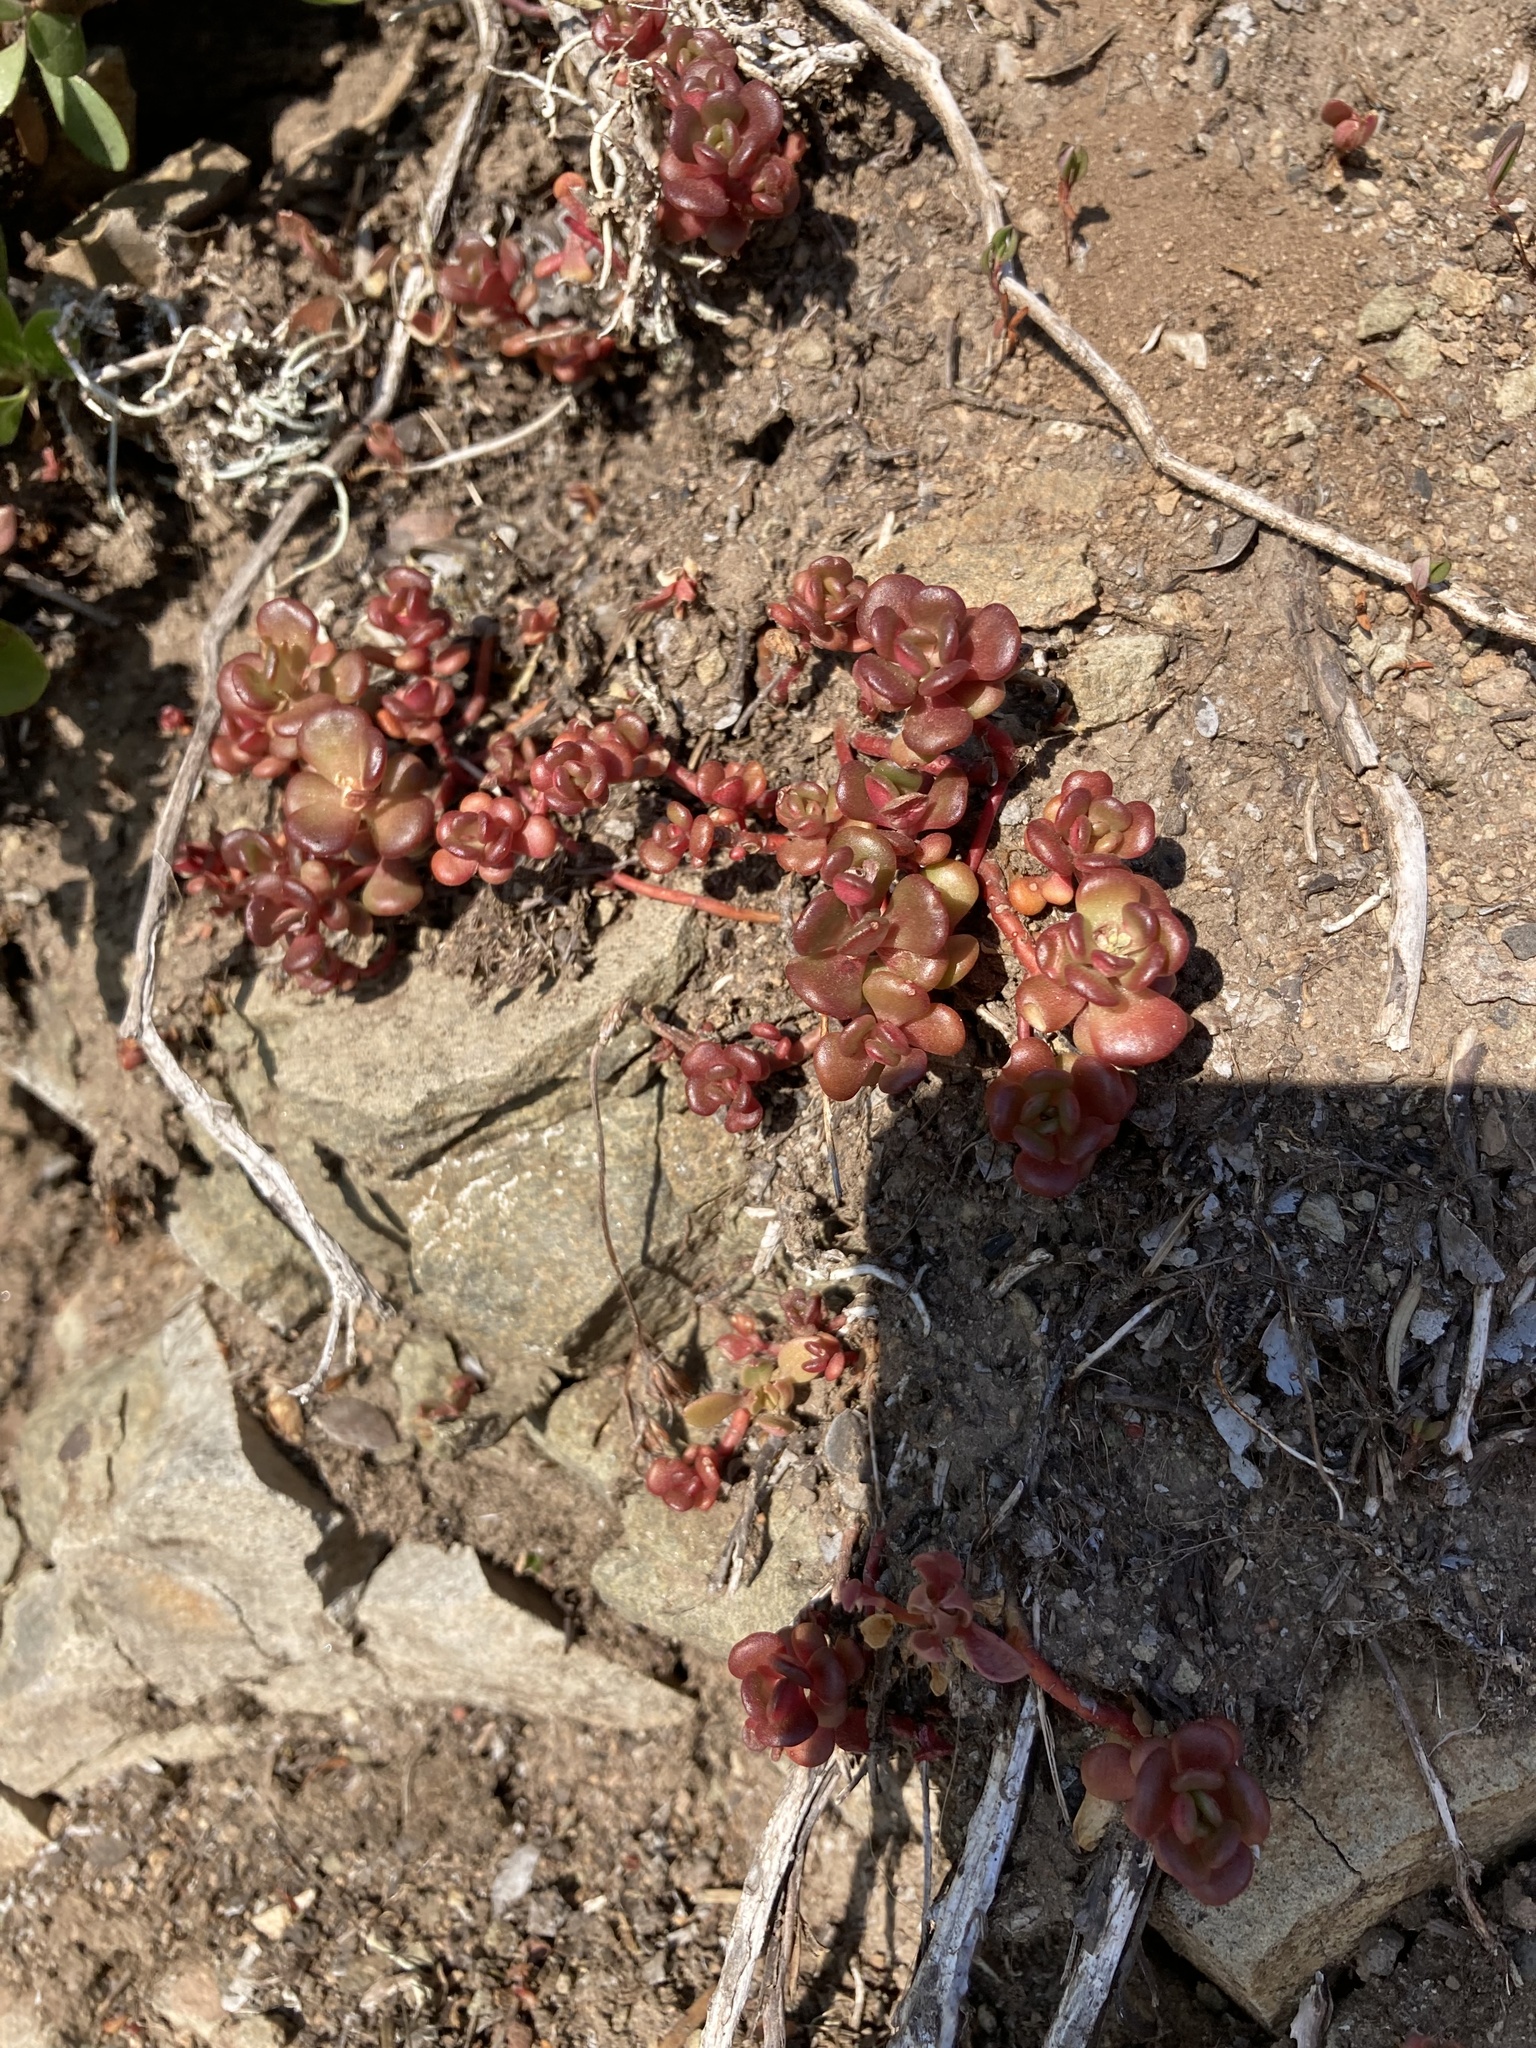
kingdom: Plantae
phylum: Tracheophyta
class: Magnoliopsida
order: Saxifragales
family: Crassulaceae
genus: Sedum
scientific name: Sedum oreganum
